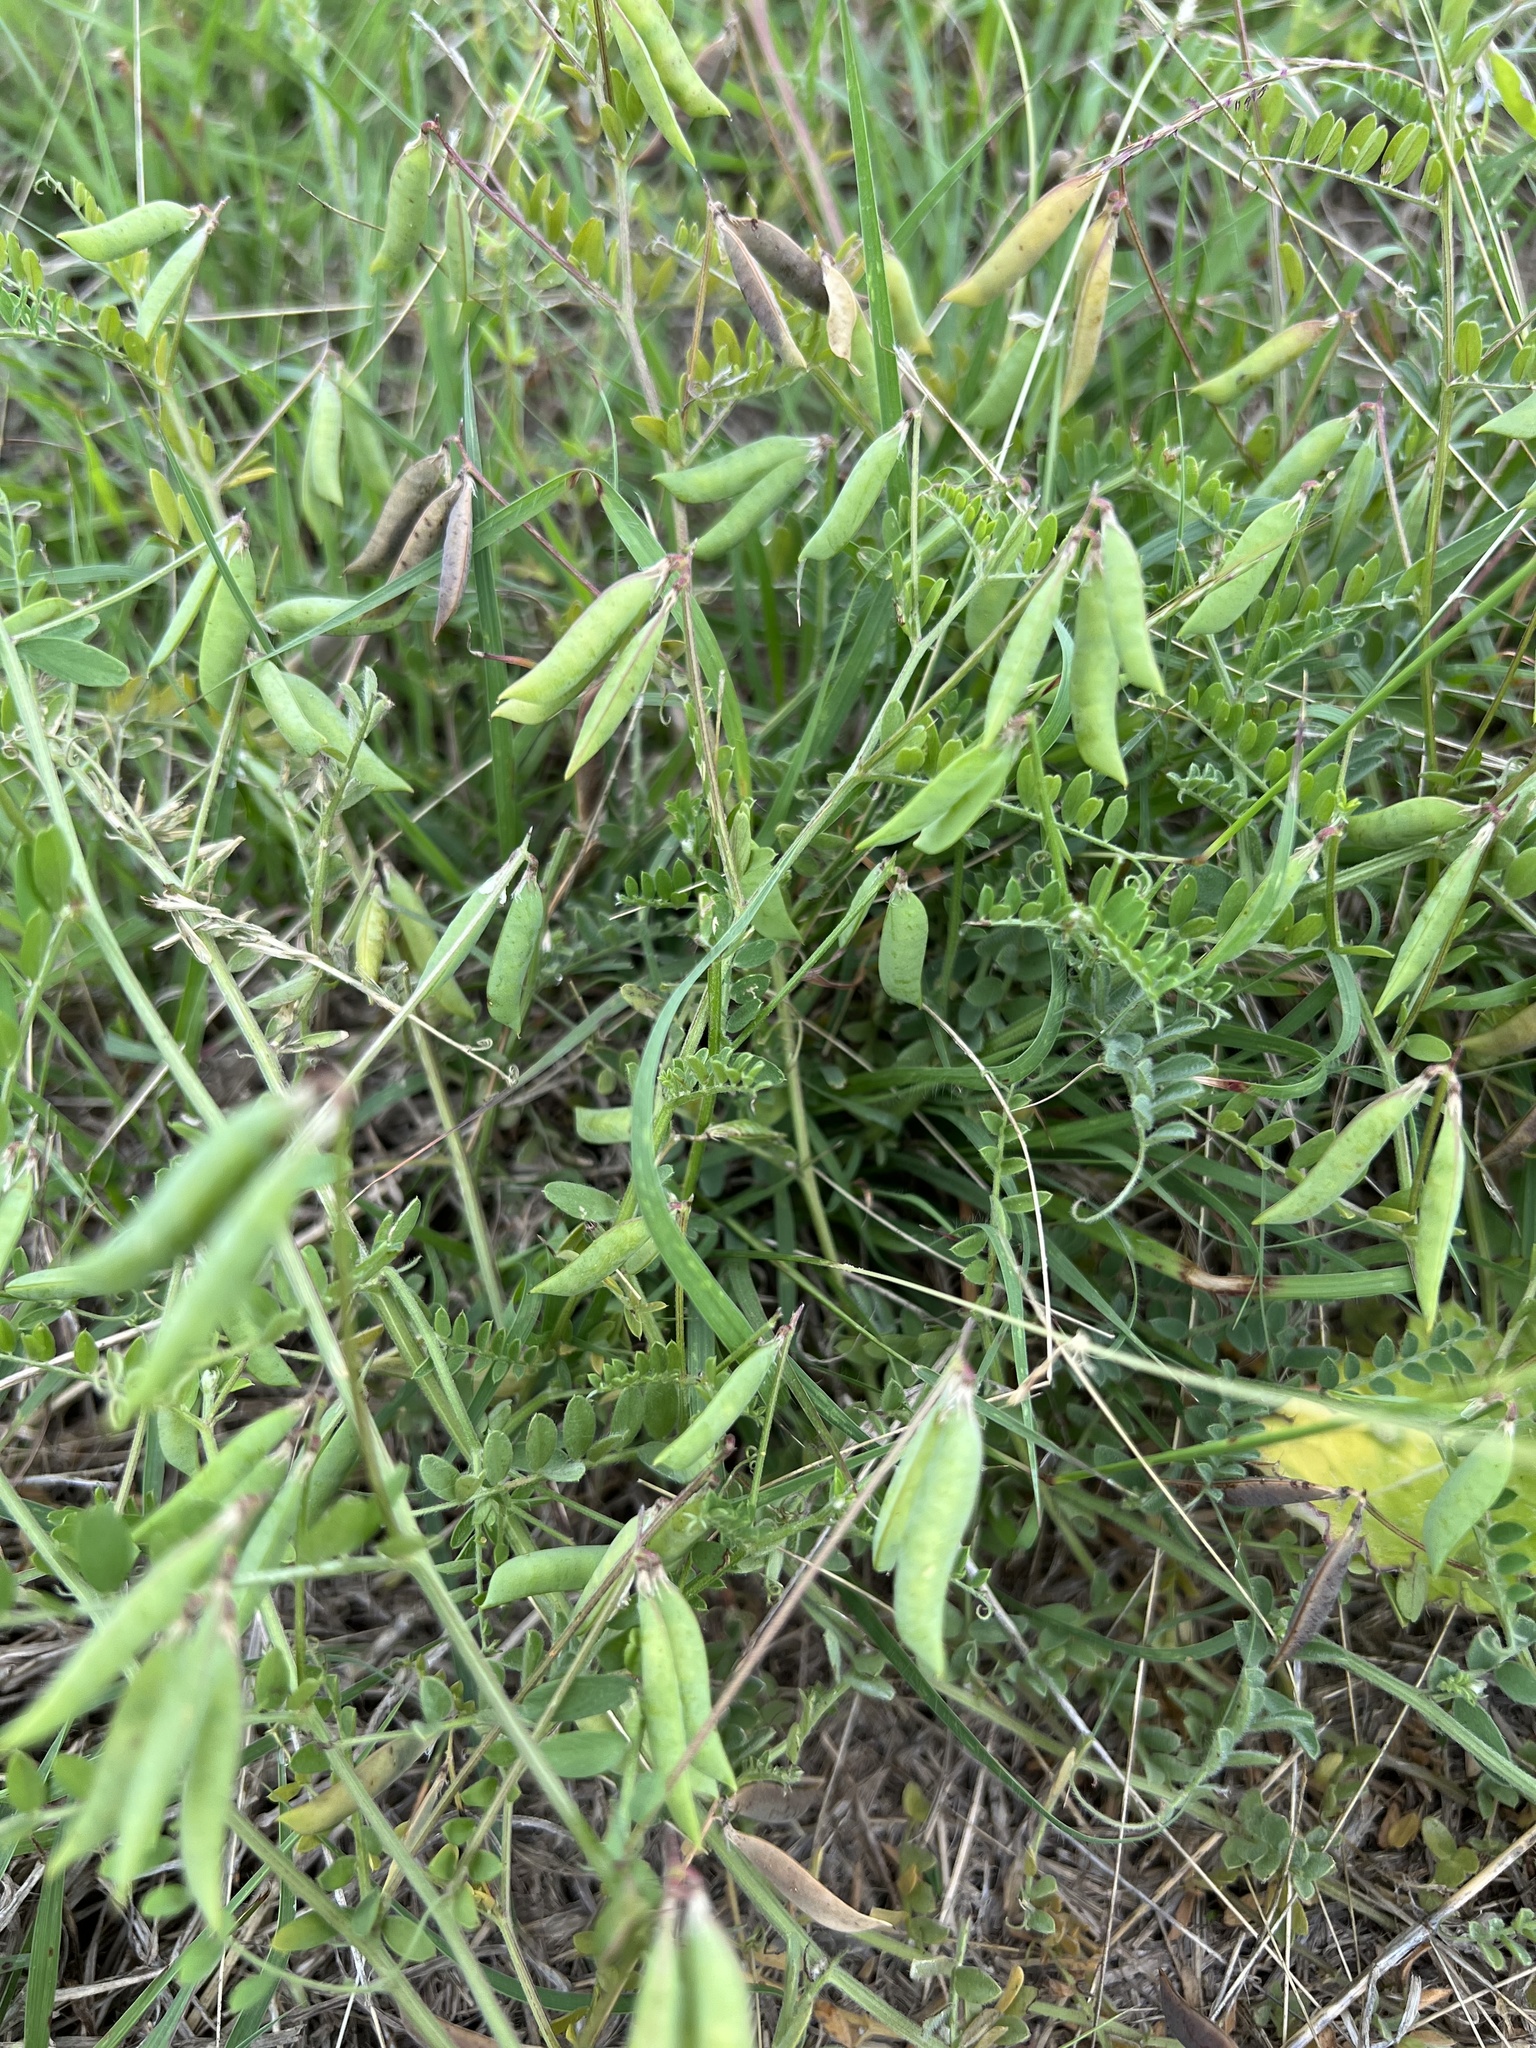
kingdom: Plantae
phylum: Tracheophyta
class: Magnoliopsida
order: Fabales
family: Fabaceae
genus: Vicia
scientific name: Vicia ludoviciana
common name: Louisiana vetch
